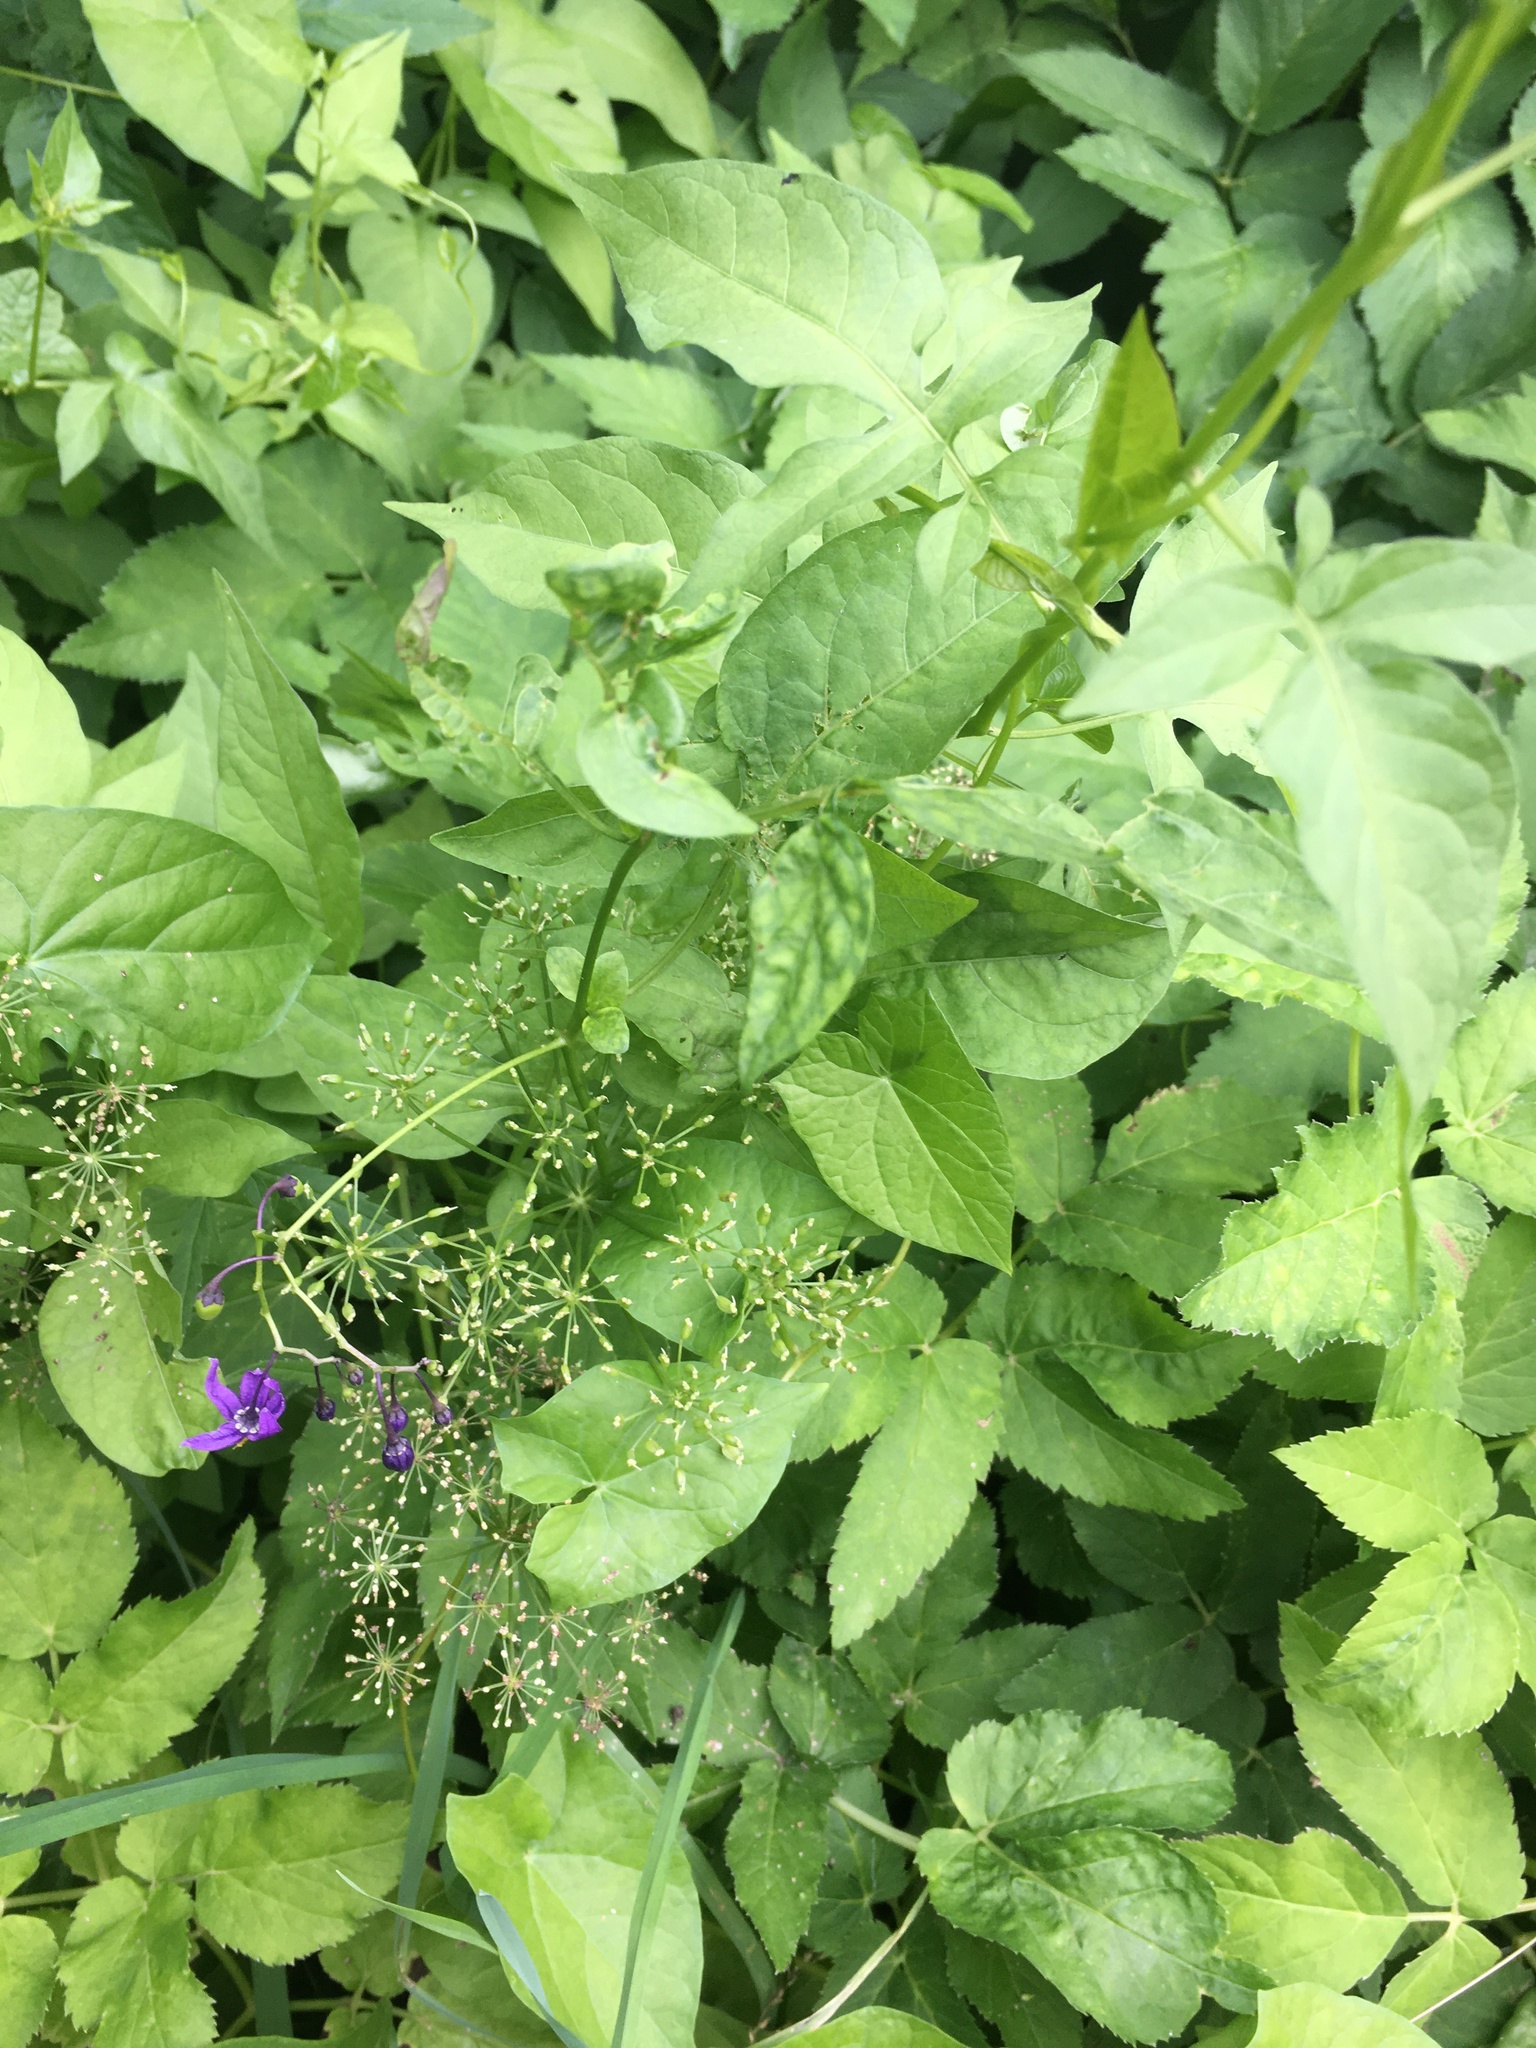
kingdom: Plantae
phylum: Tracheophyta
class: Magnoliopsida
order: Solanales
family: Solanaceae
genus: Solanum
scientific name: Solanum dulcamara
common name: Climbing nightshade
